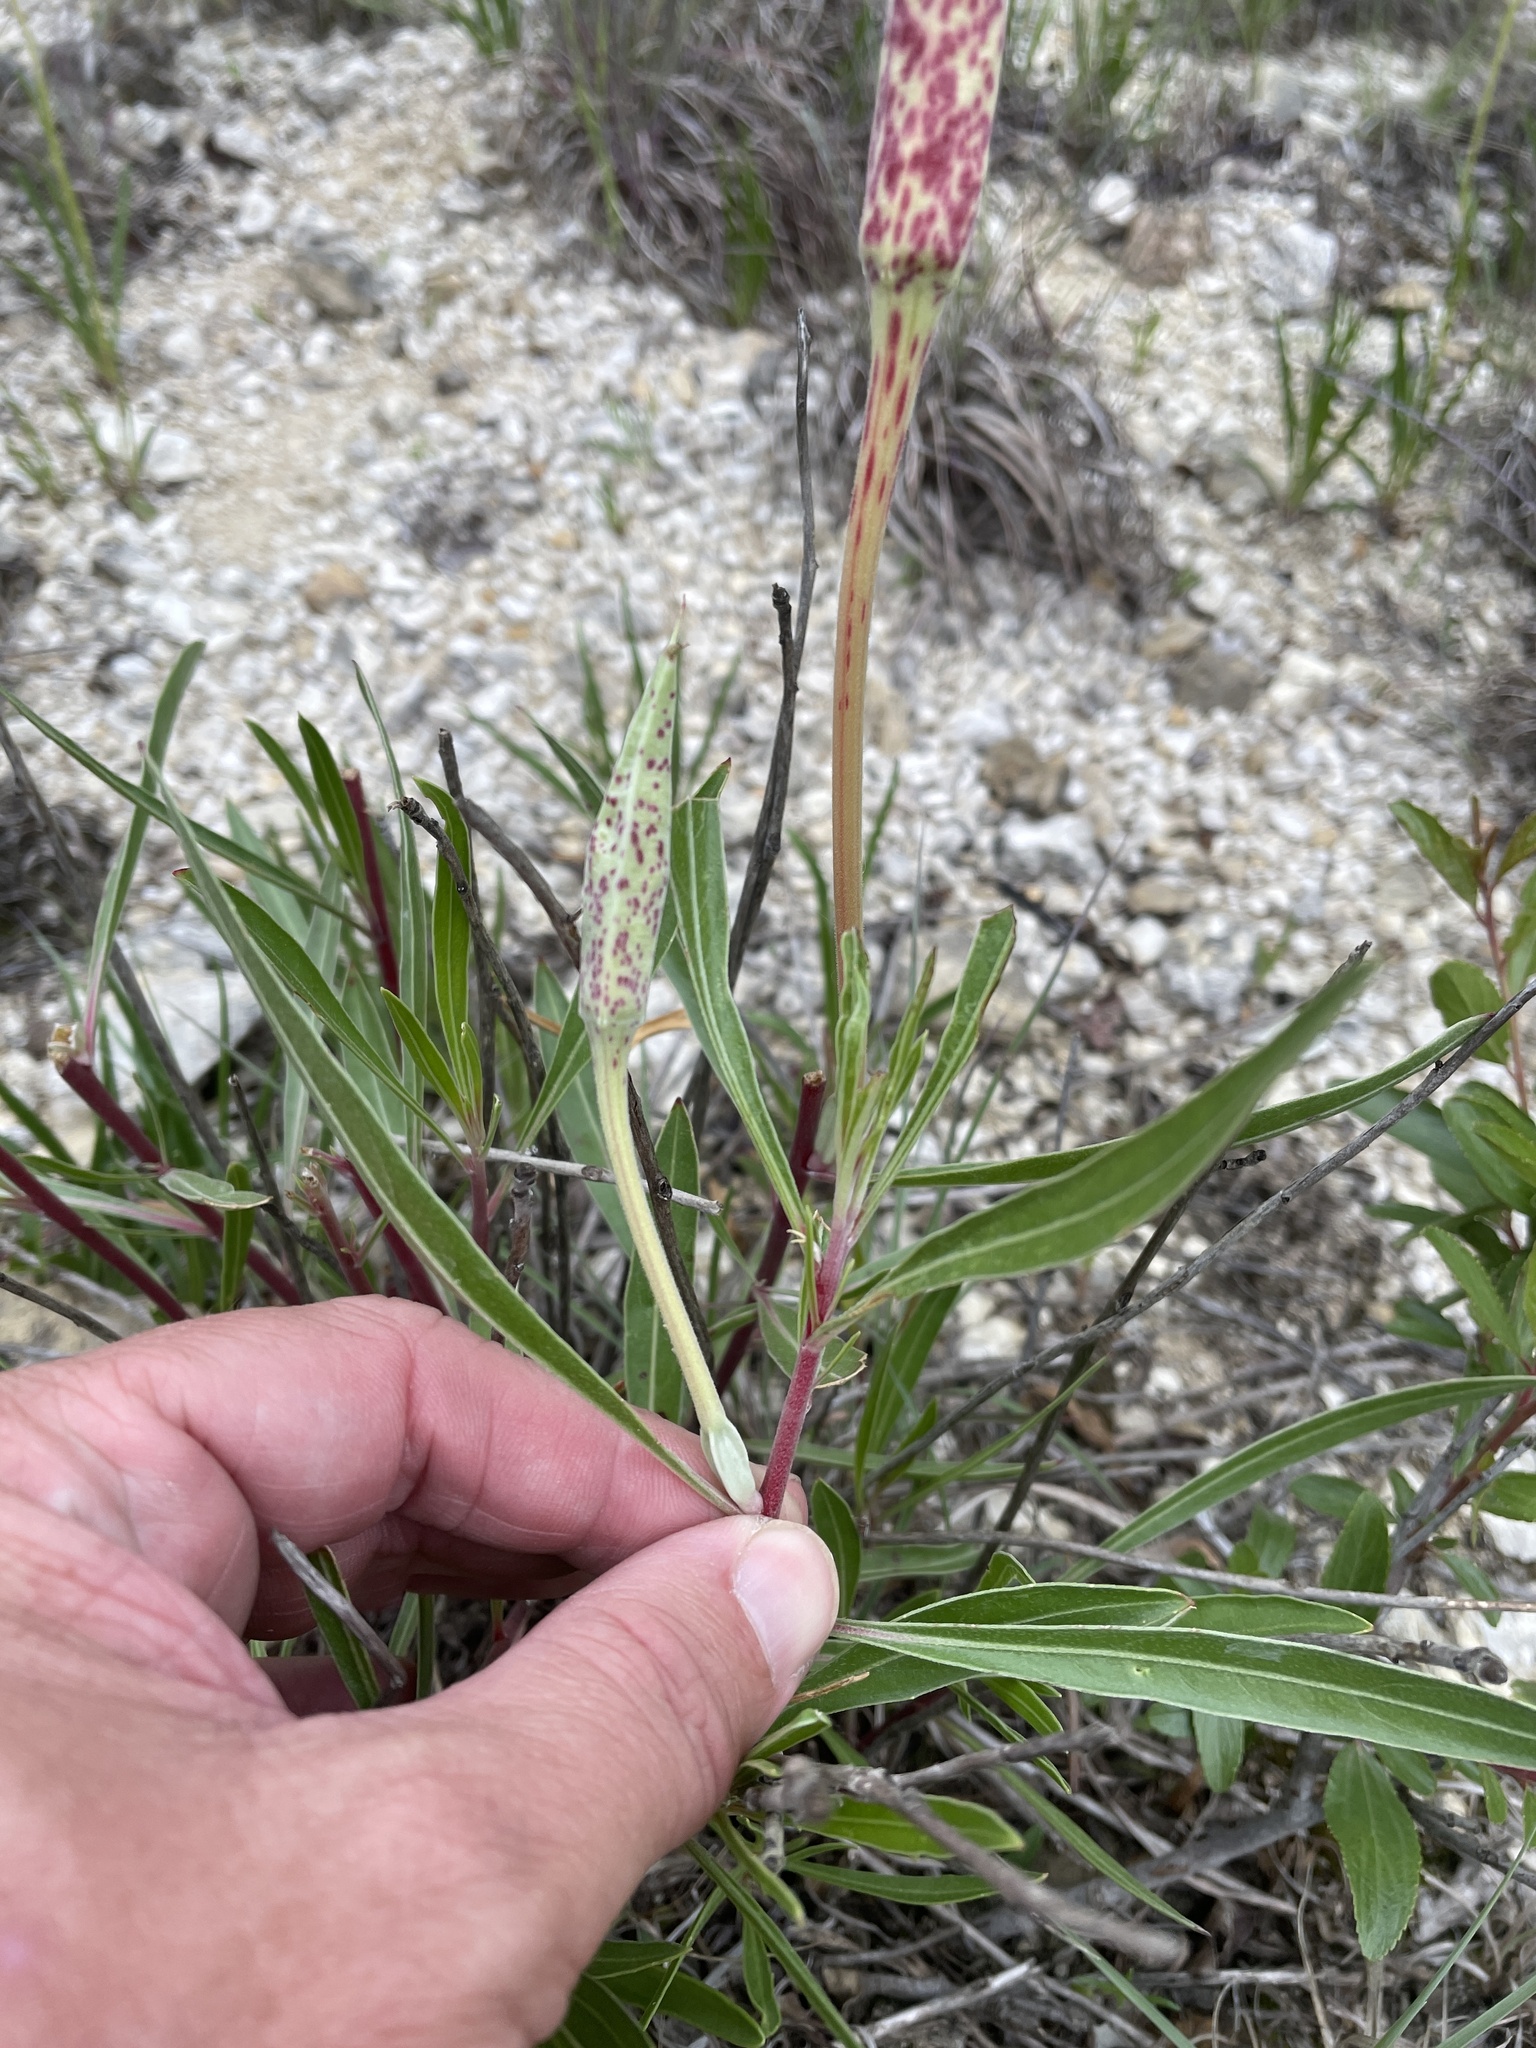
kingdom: Plantae
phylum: Tracheophyta
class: Magnoliopsida
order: Myrtales
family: Onagraceae
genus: Oenothera
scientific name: Oenothera macrocarpa
